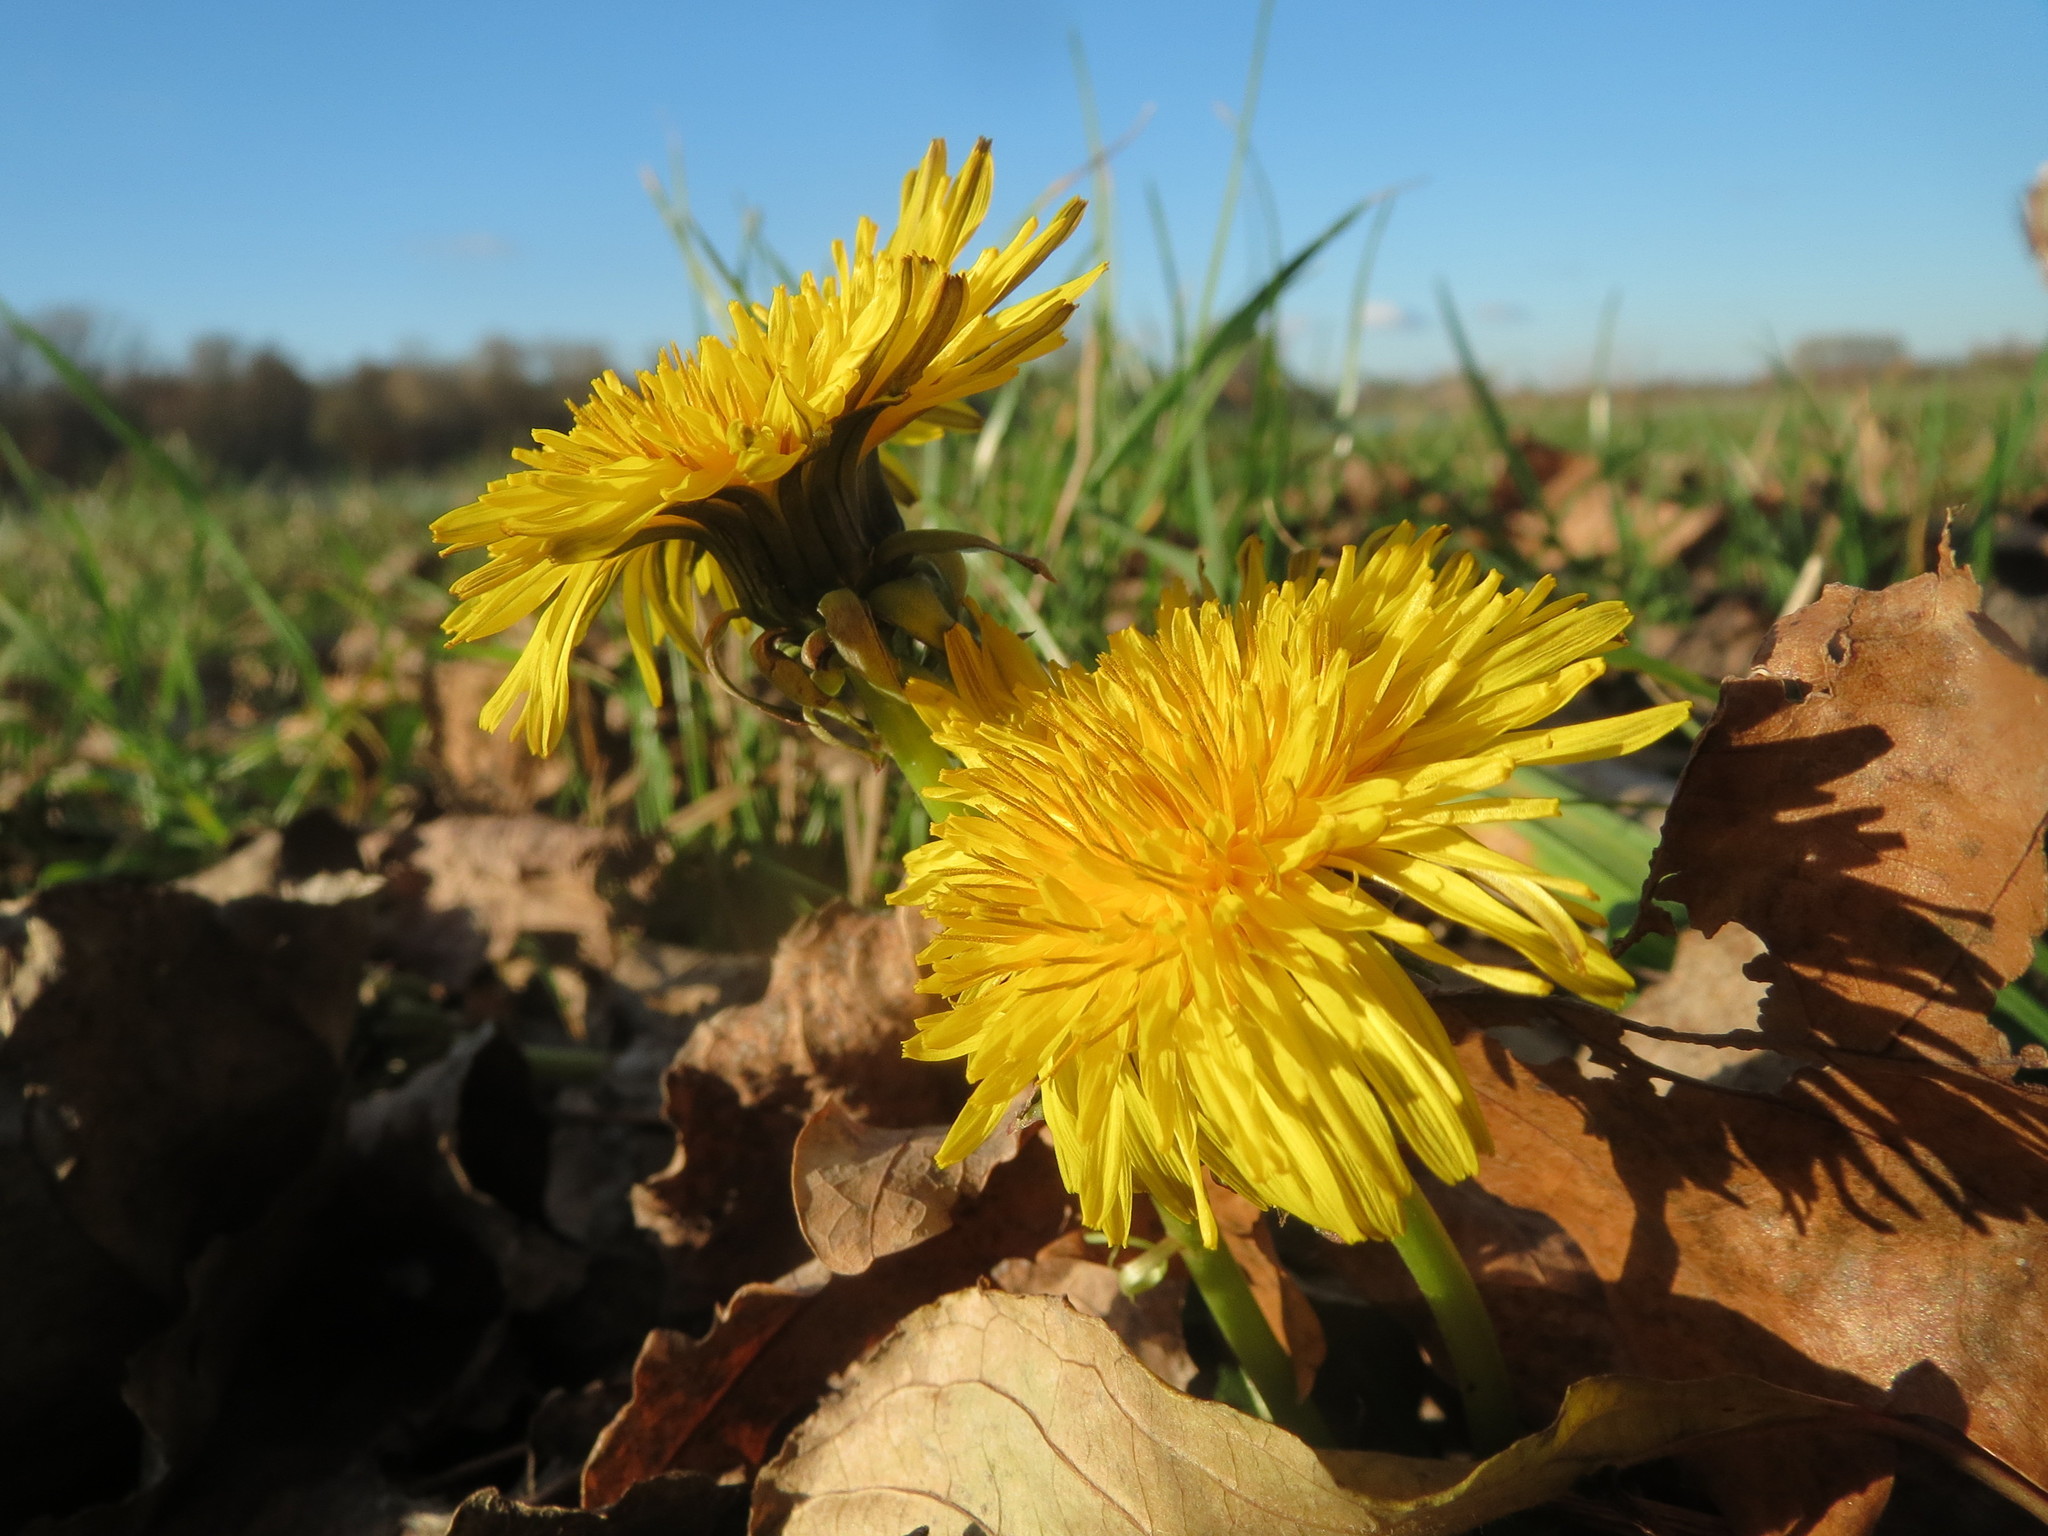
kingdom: Plantae
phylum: Tracheophyta
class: Magnoliopsida
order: Asterales
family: Asteraceae
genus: Taraxacum
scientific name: Taraxacum officinale
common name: Common dandelion
